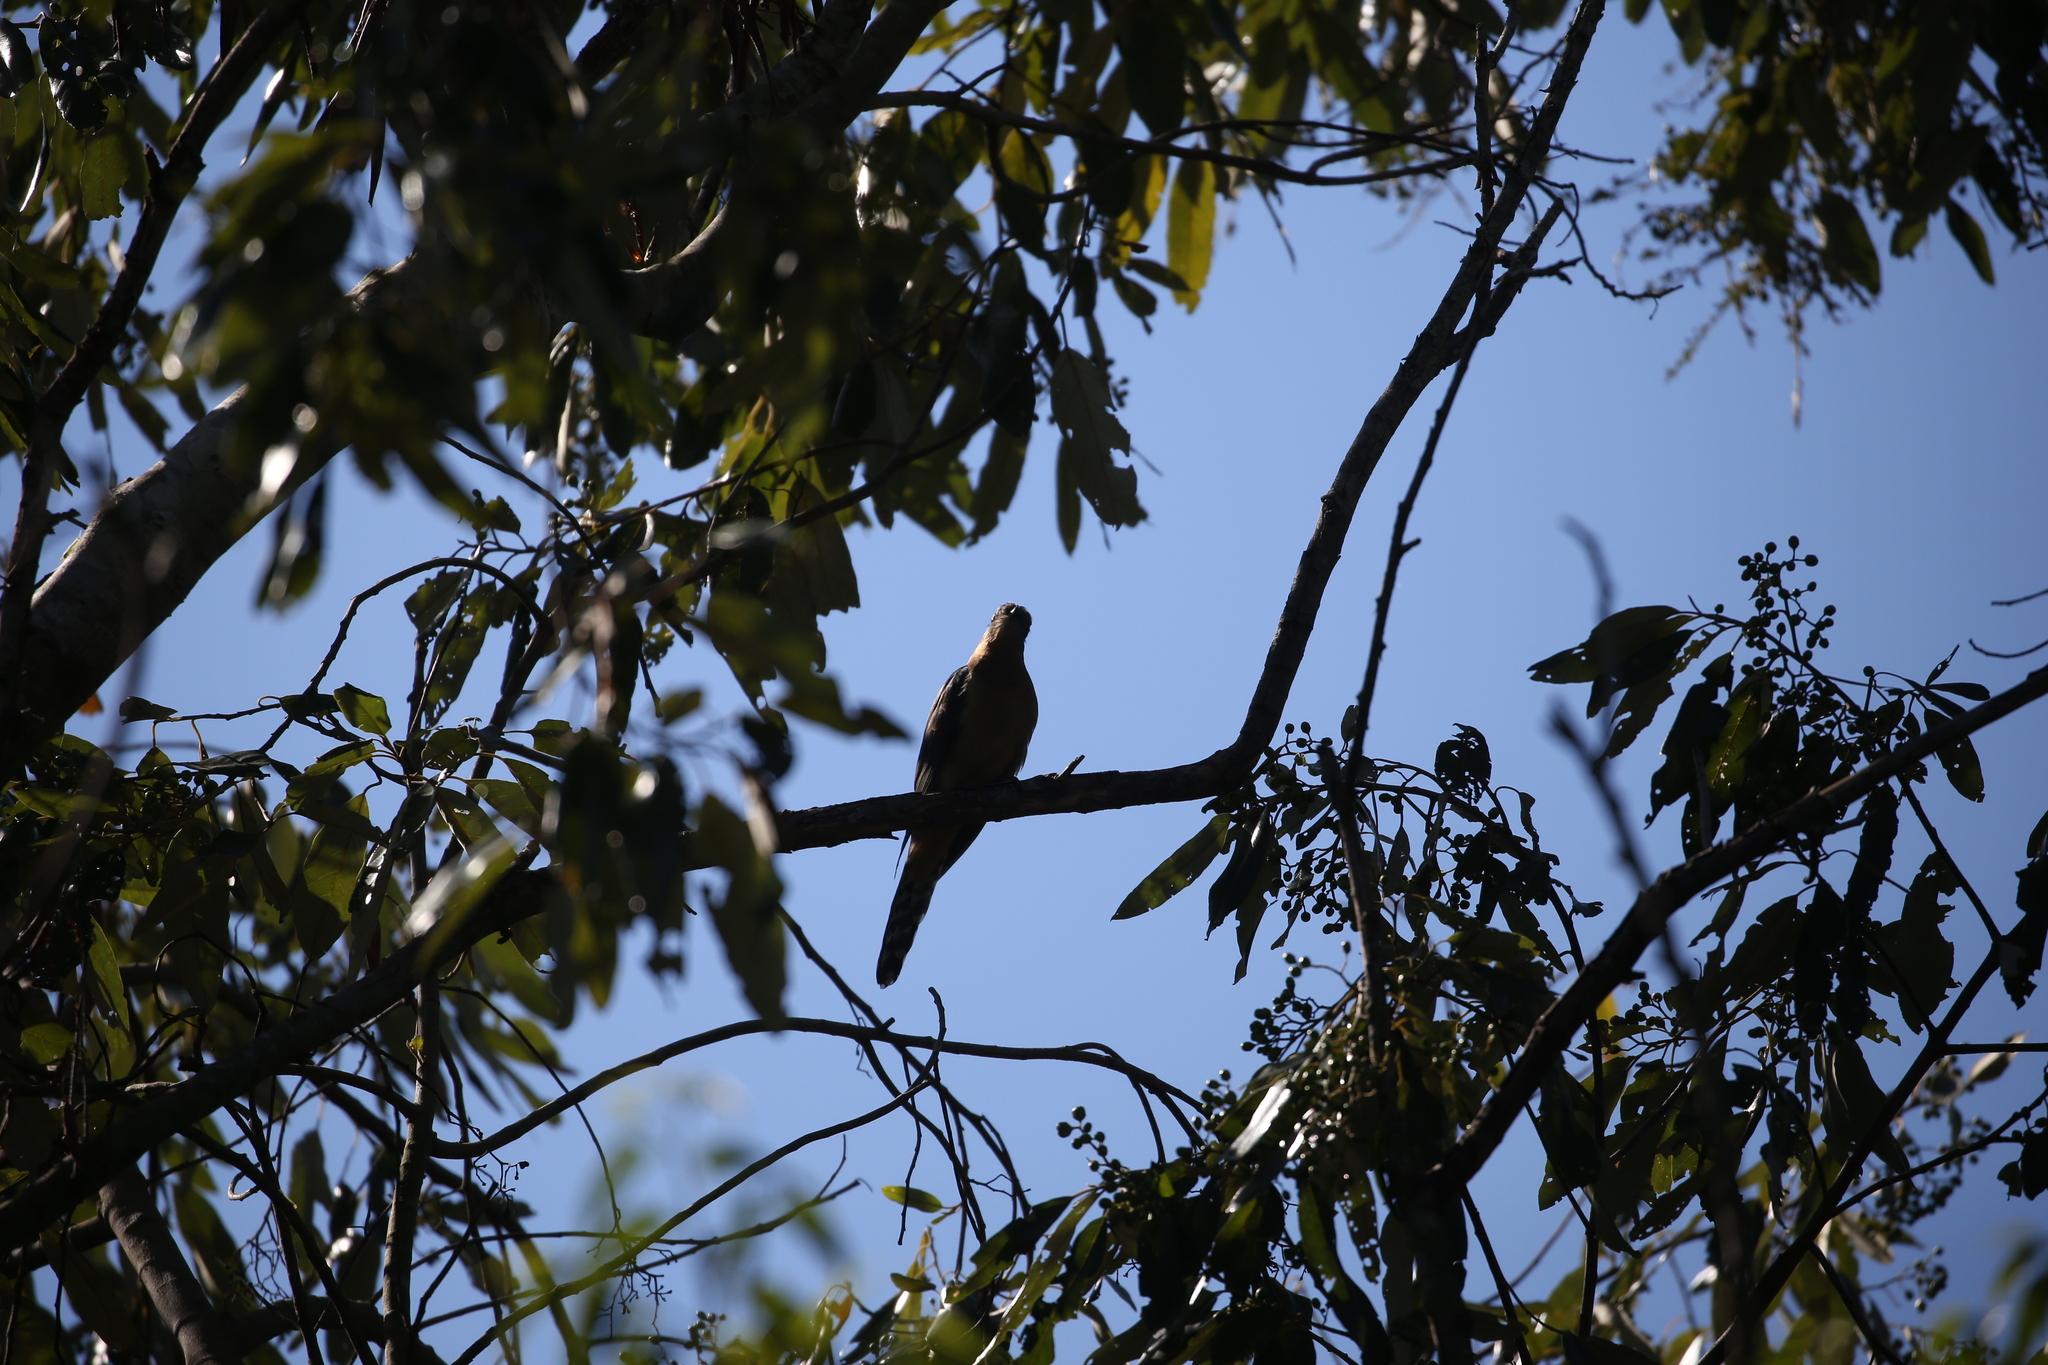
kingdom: Animalia
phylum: Chordata
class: Aves
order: Cuculiformes
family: Cuculidae
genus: Cacomantis
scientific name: Cacomantis flabelliformis
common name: Fan-tailed cuckoo
